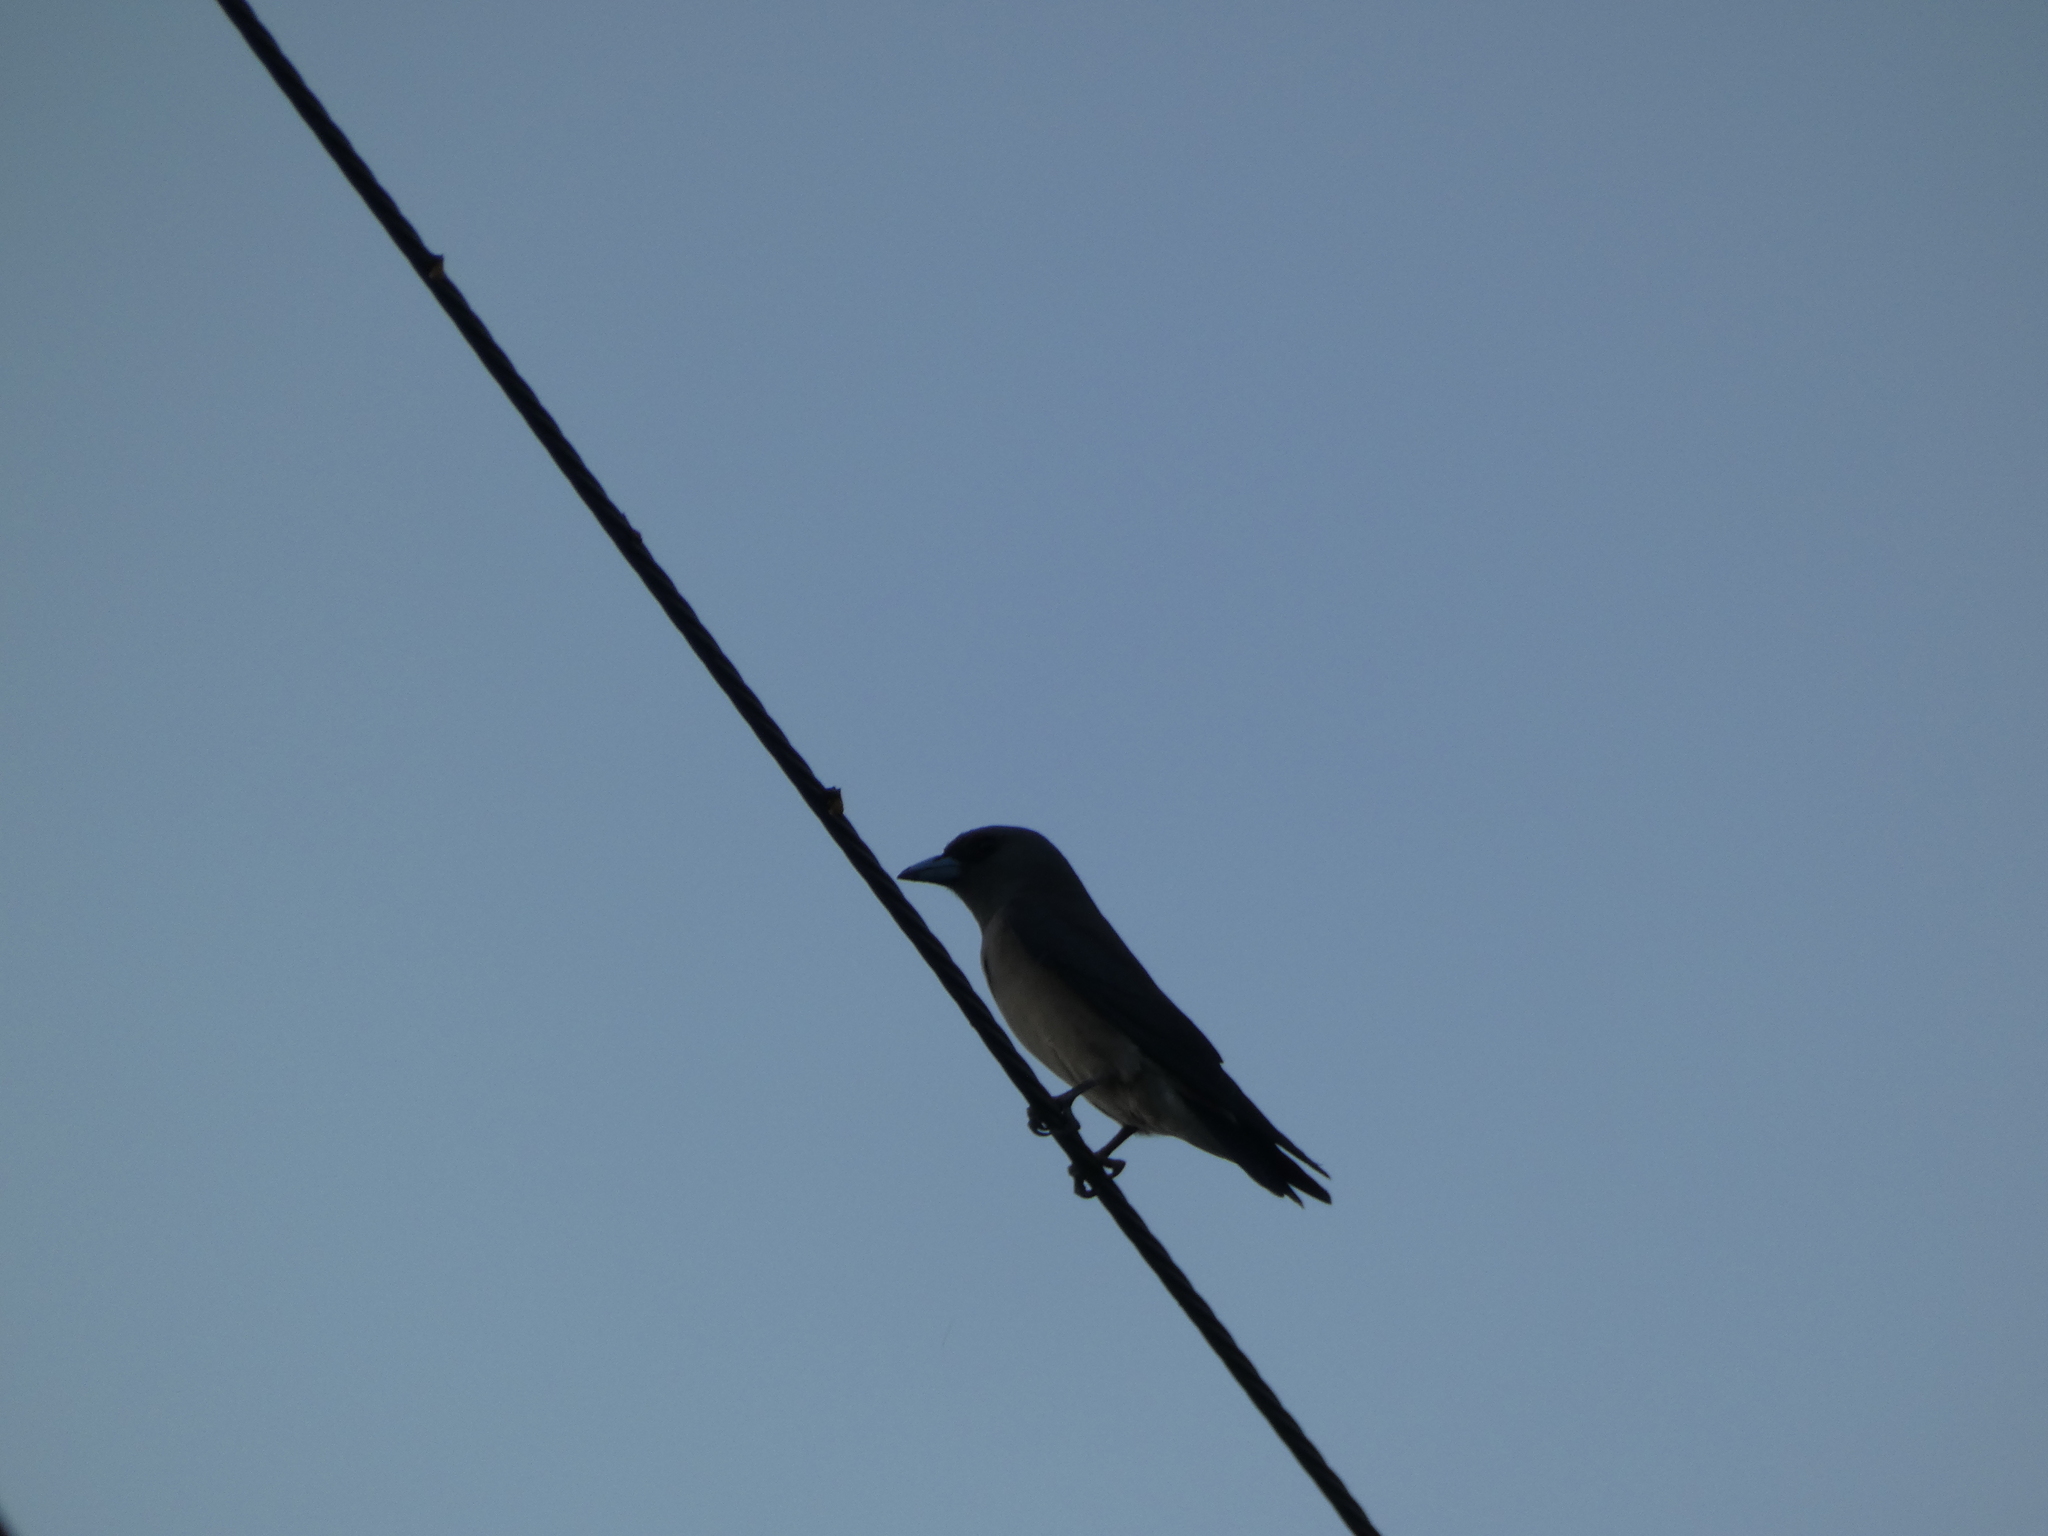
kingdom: Animalia
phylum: Chordata
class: Aves
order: Passeriformes
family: Artamidae
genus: Artamus
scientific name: Artamus fuscus
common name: Ashy woodswallow
